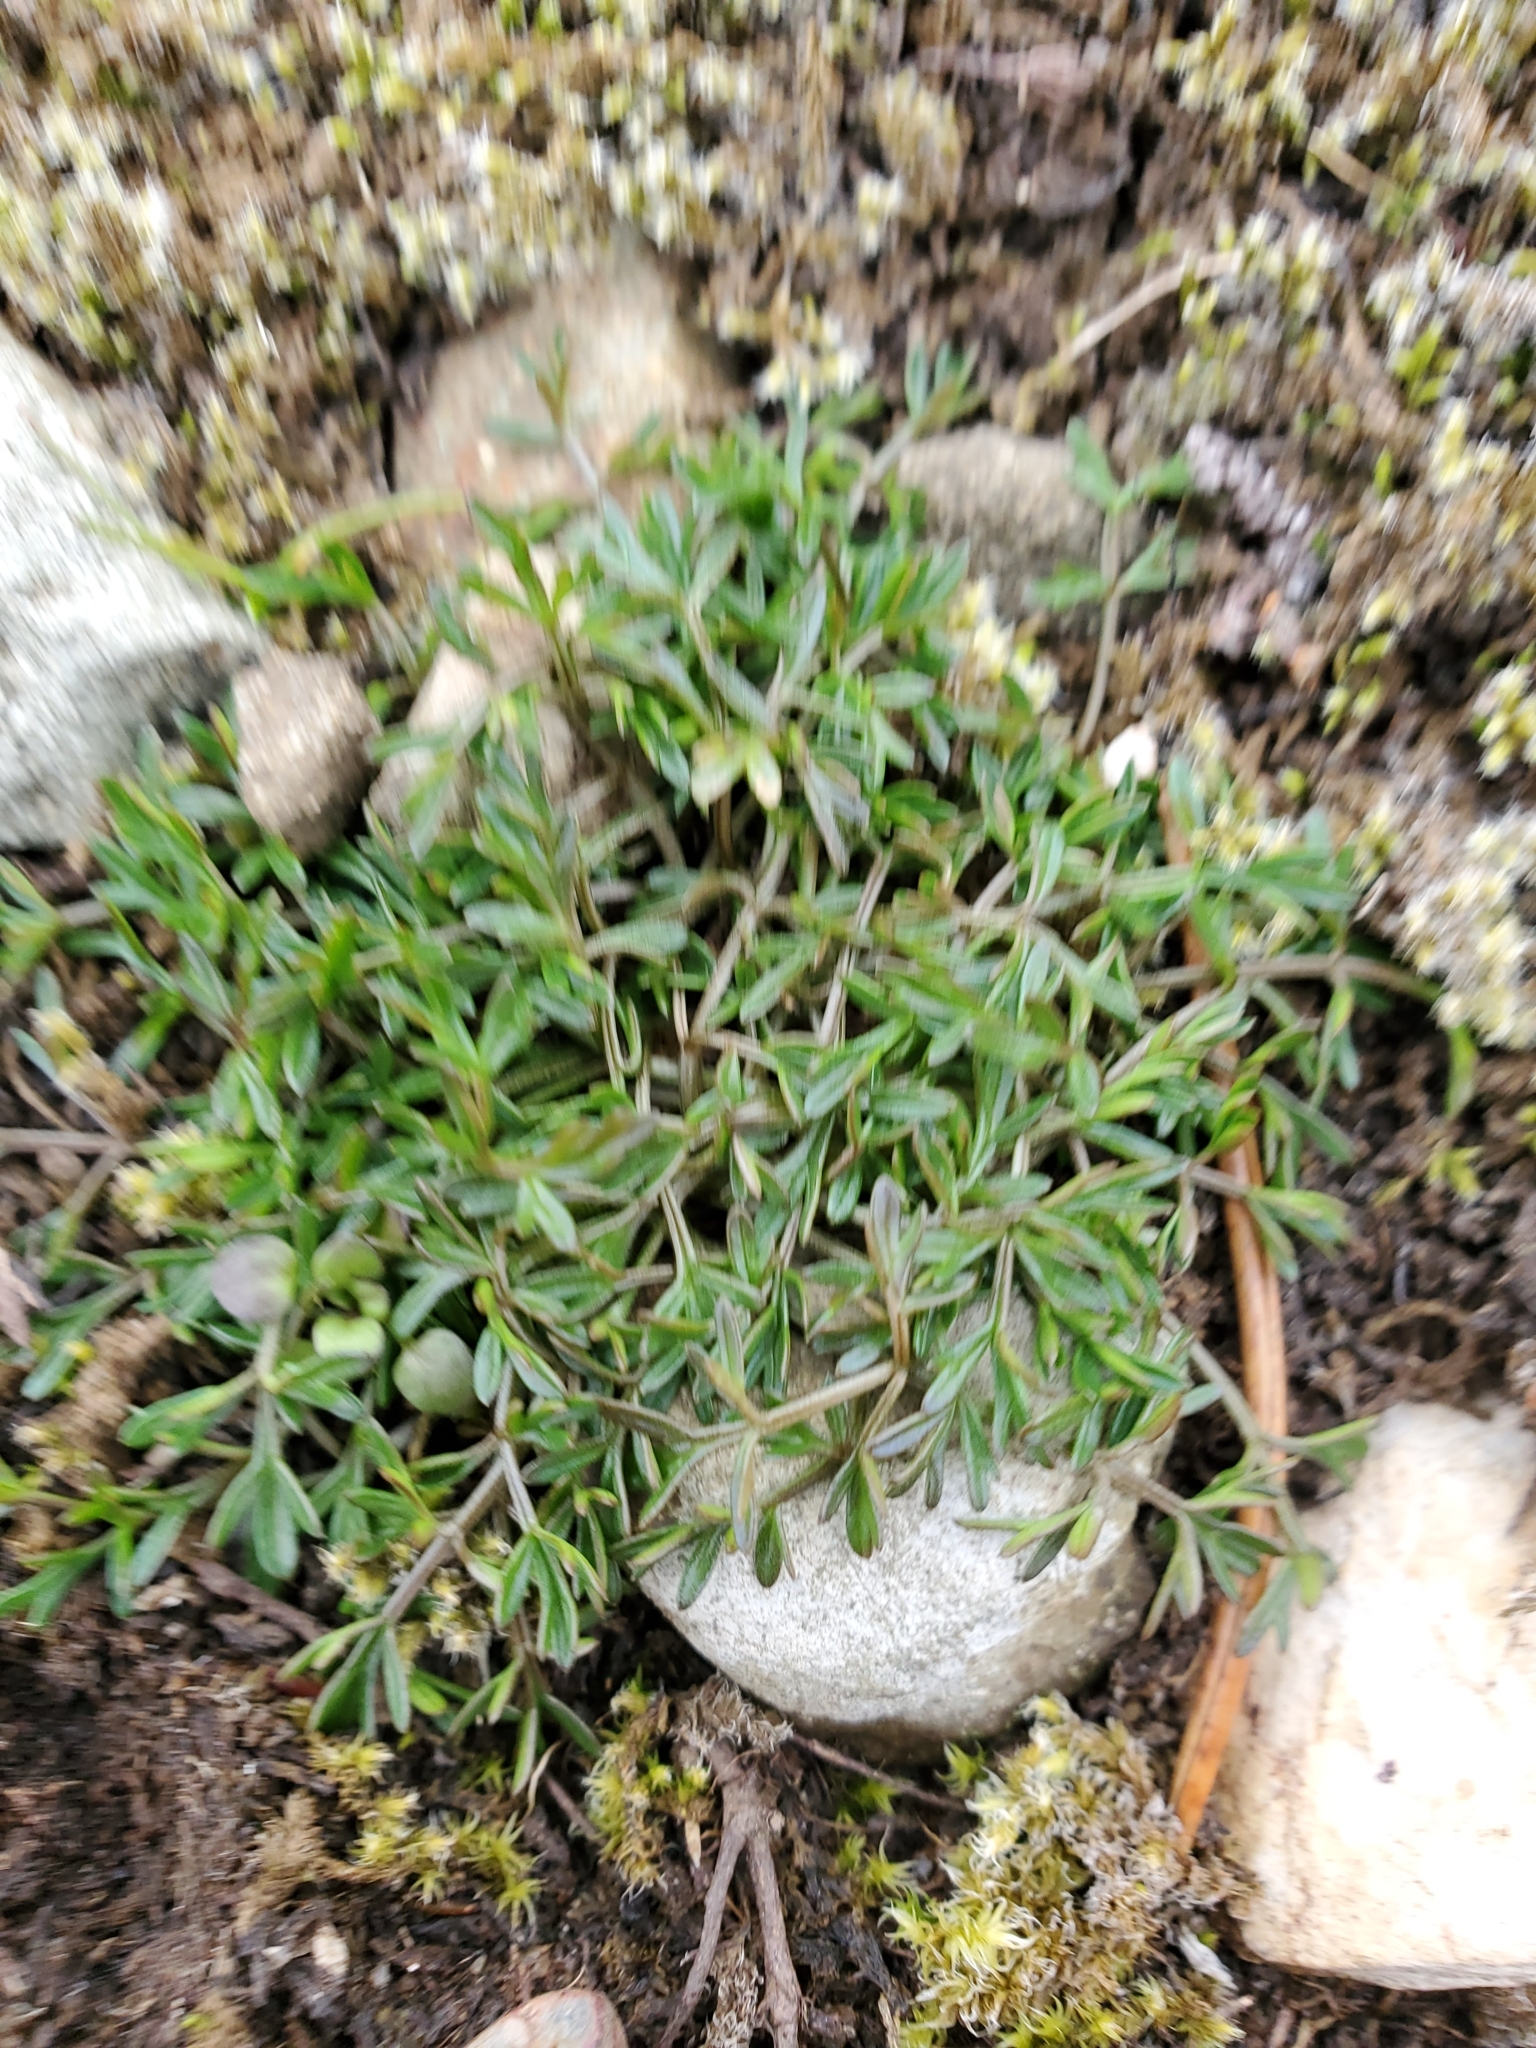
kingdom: Plantae
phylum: Tracheophyta
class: Magnoliopsida
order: Apiales
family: Apiaceae
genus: Lomatium
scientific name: Lomatium utriculatum
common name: Fine-leaf desert-parsley
